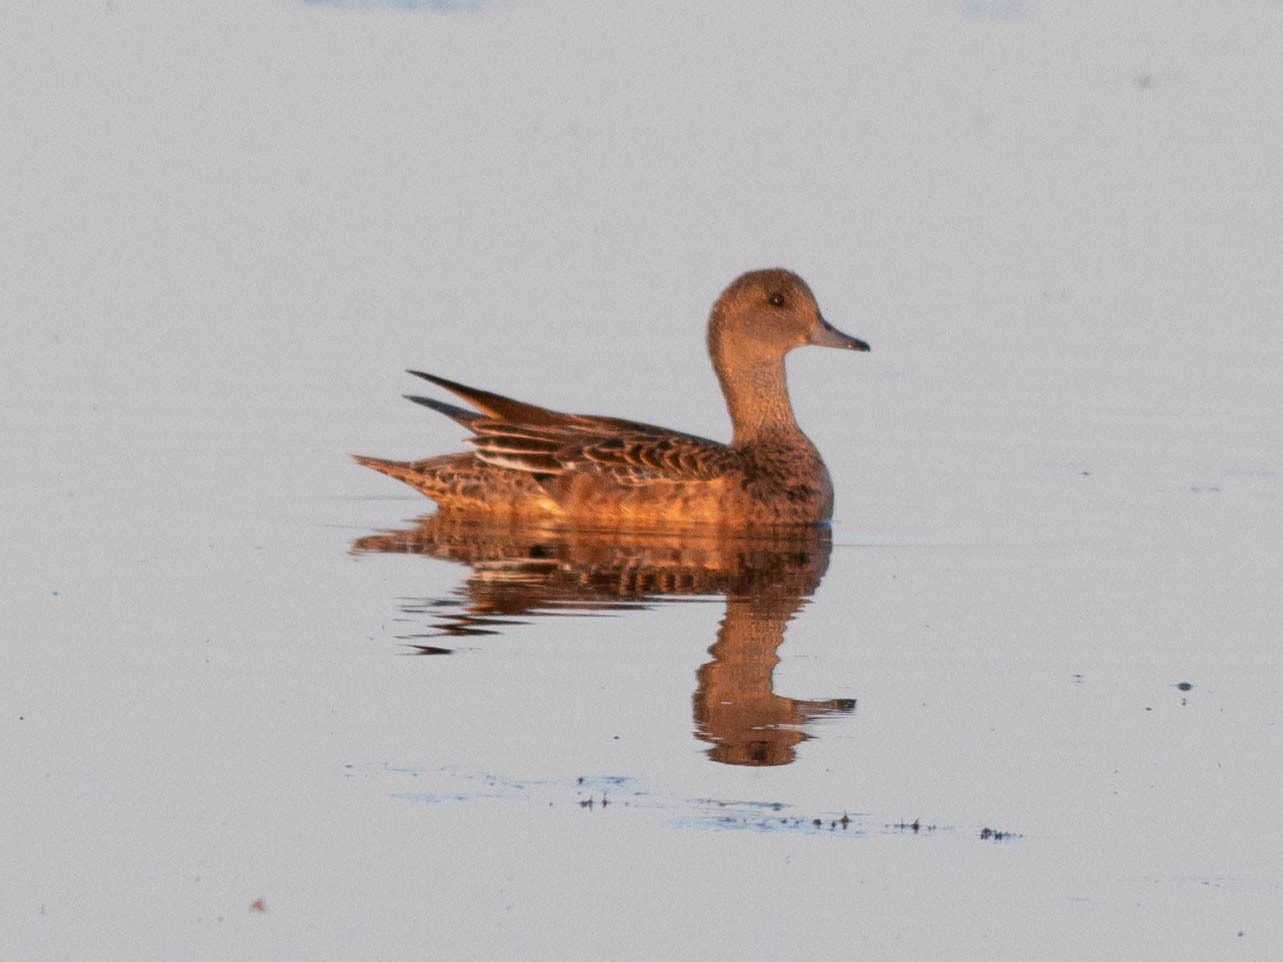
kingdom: Animalia
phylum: Chordata
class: Aves
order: Anseriformes
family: Anatidae
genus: Mareca
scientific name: Mareca americana
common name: American wigeon
